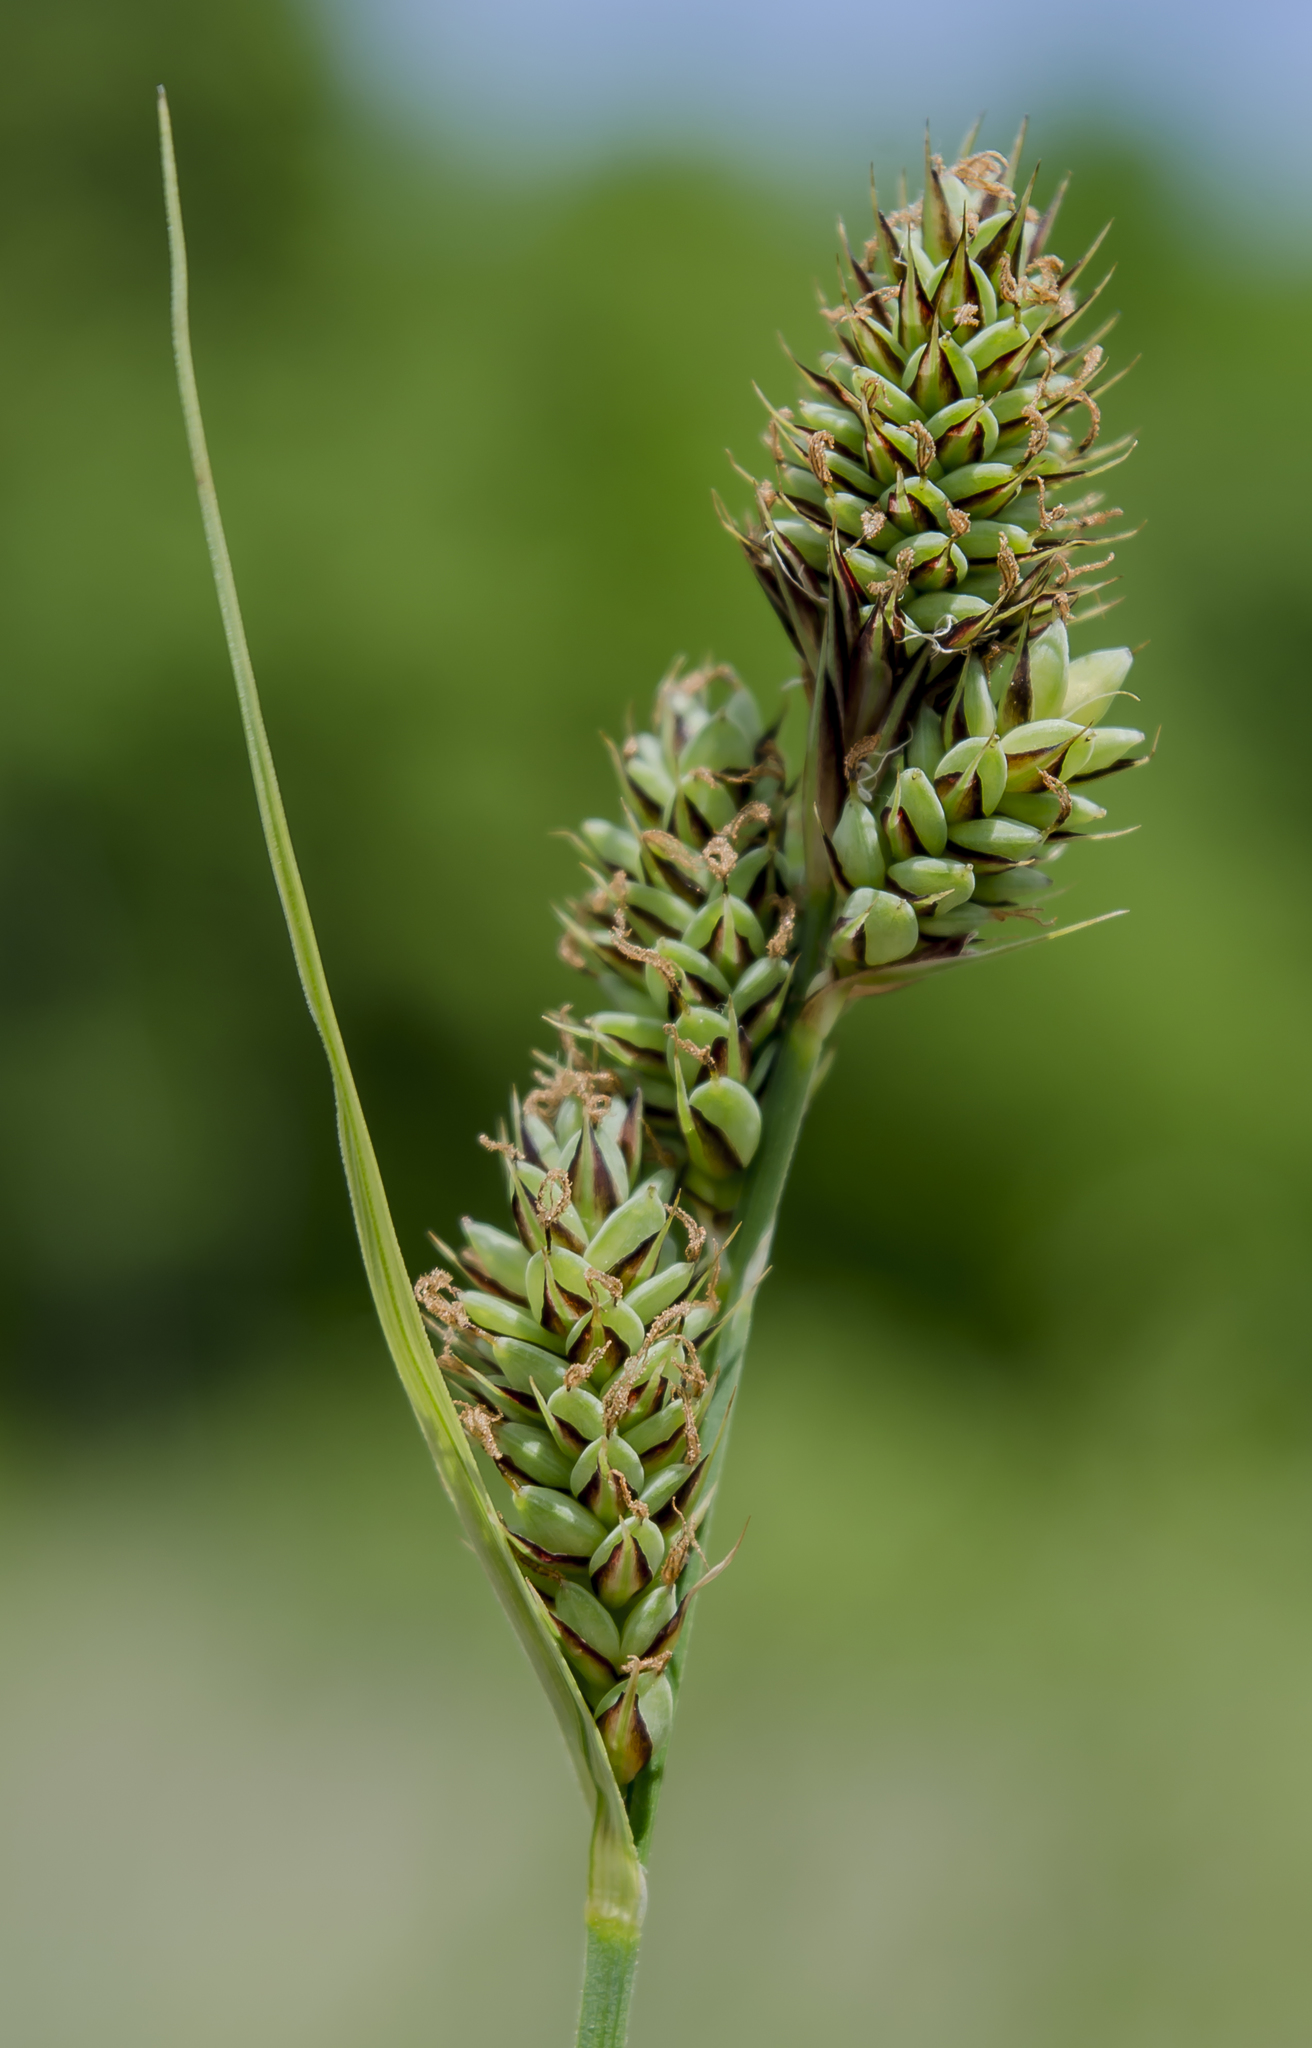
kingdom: Plantae
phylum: Tracheophyta
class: Liliopsida
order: Poales
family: Cyperaceae
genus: Carex
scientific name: Carex buxbaumii
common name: Club sedge
